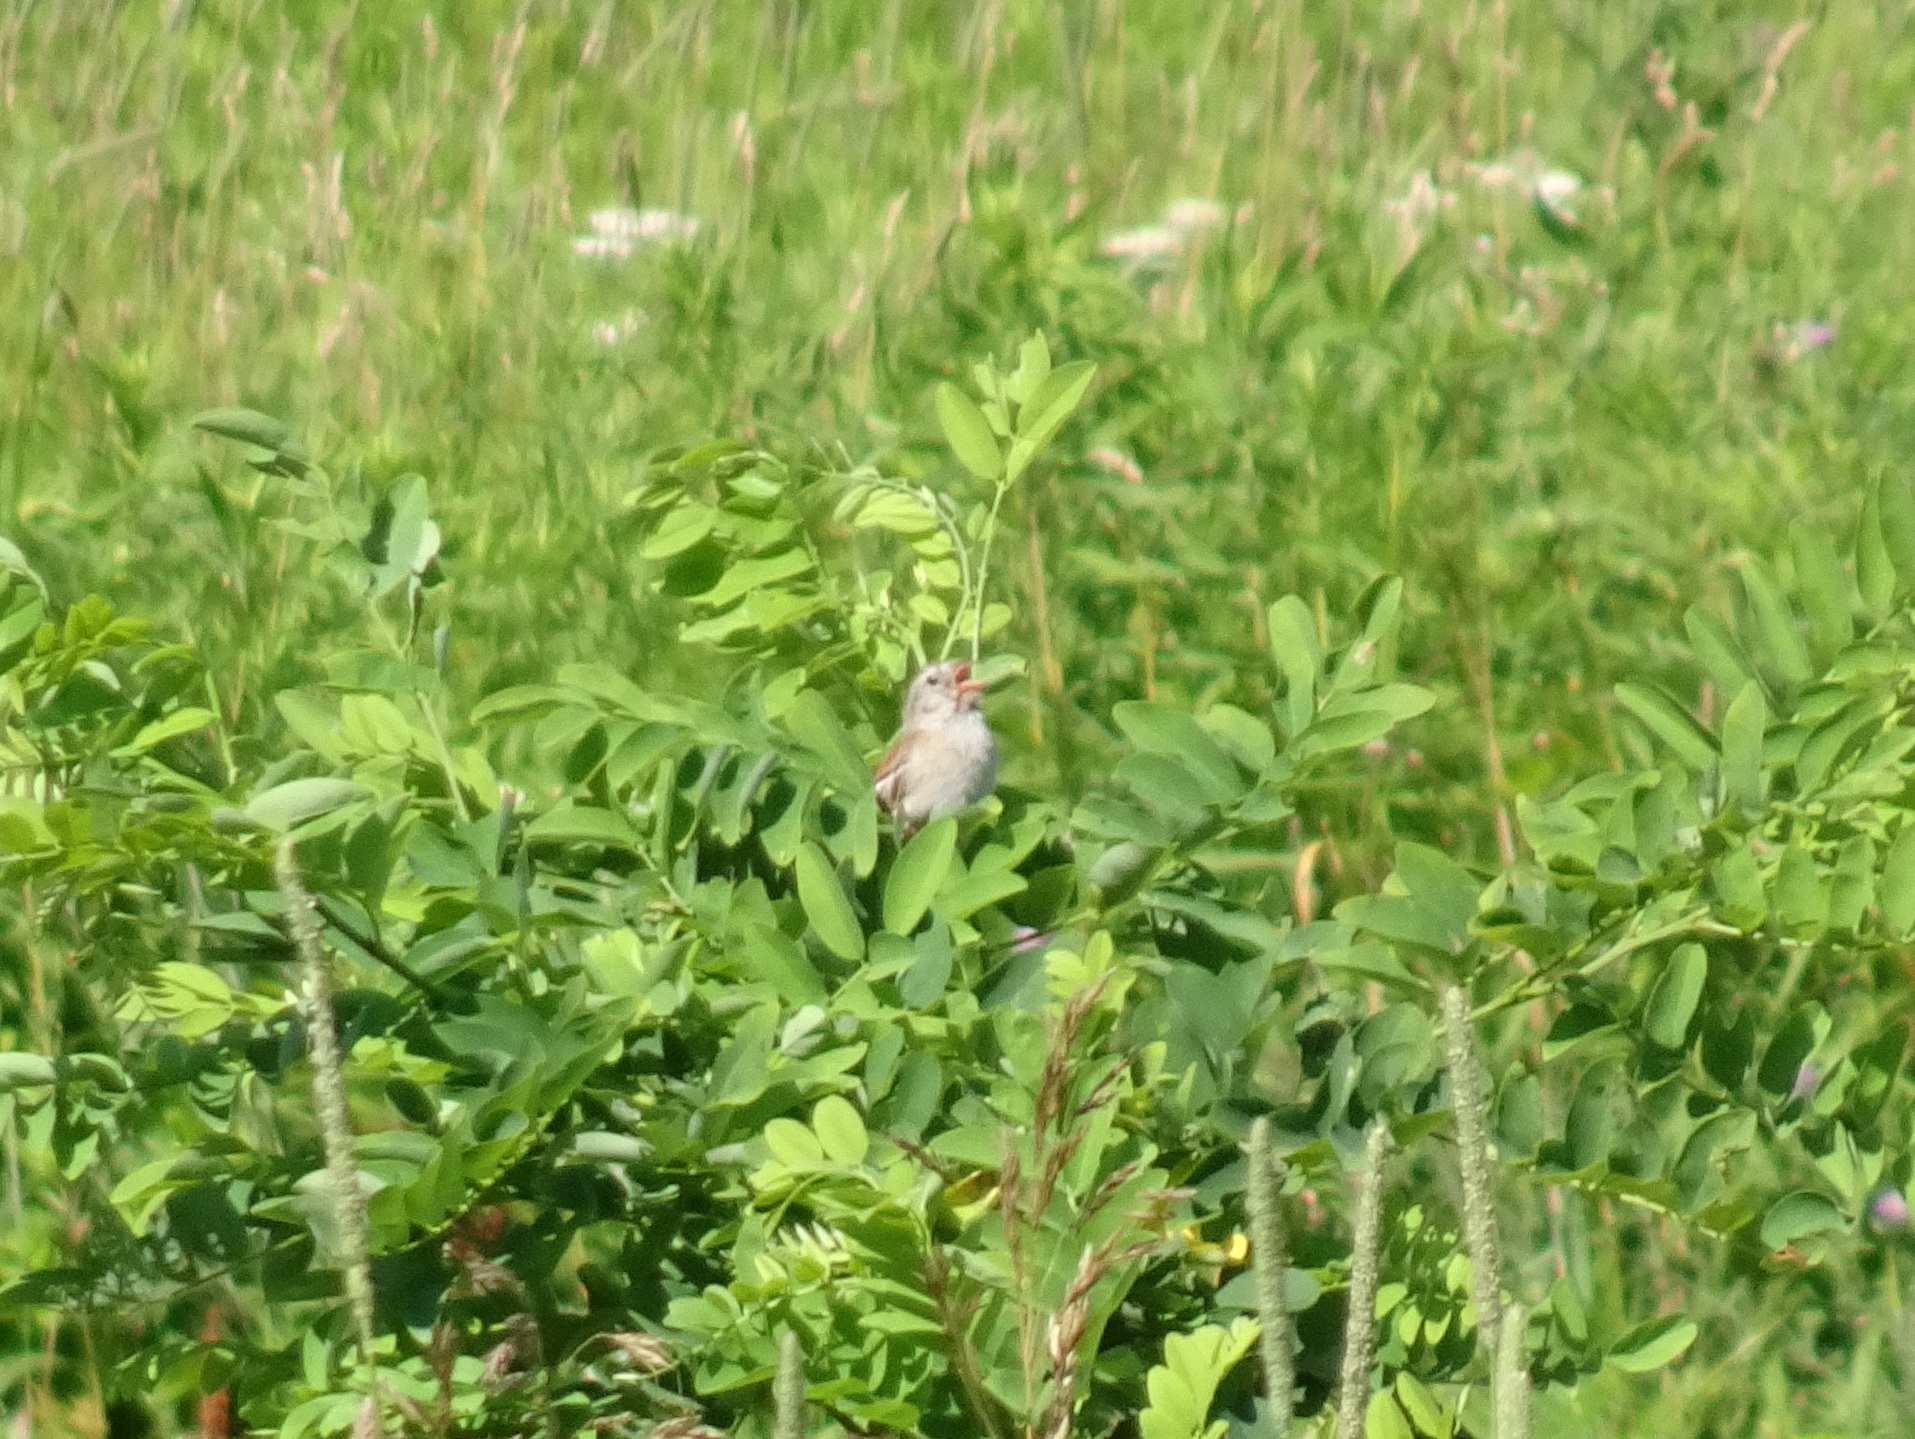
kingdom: Animalia
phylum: Chordata
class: Aves
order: Passeriformes
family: Passerellidae
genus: Spizella
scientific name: Spizella pusilla
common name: Field sparrow
